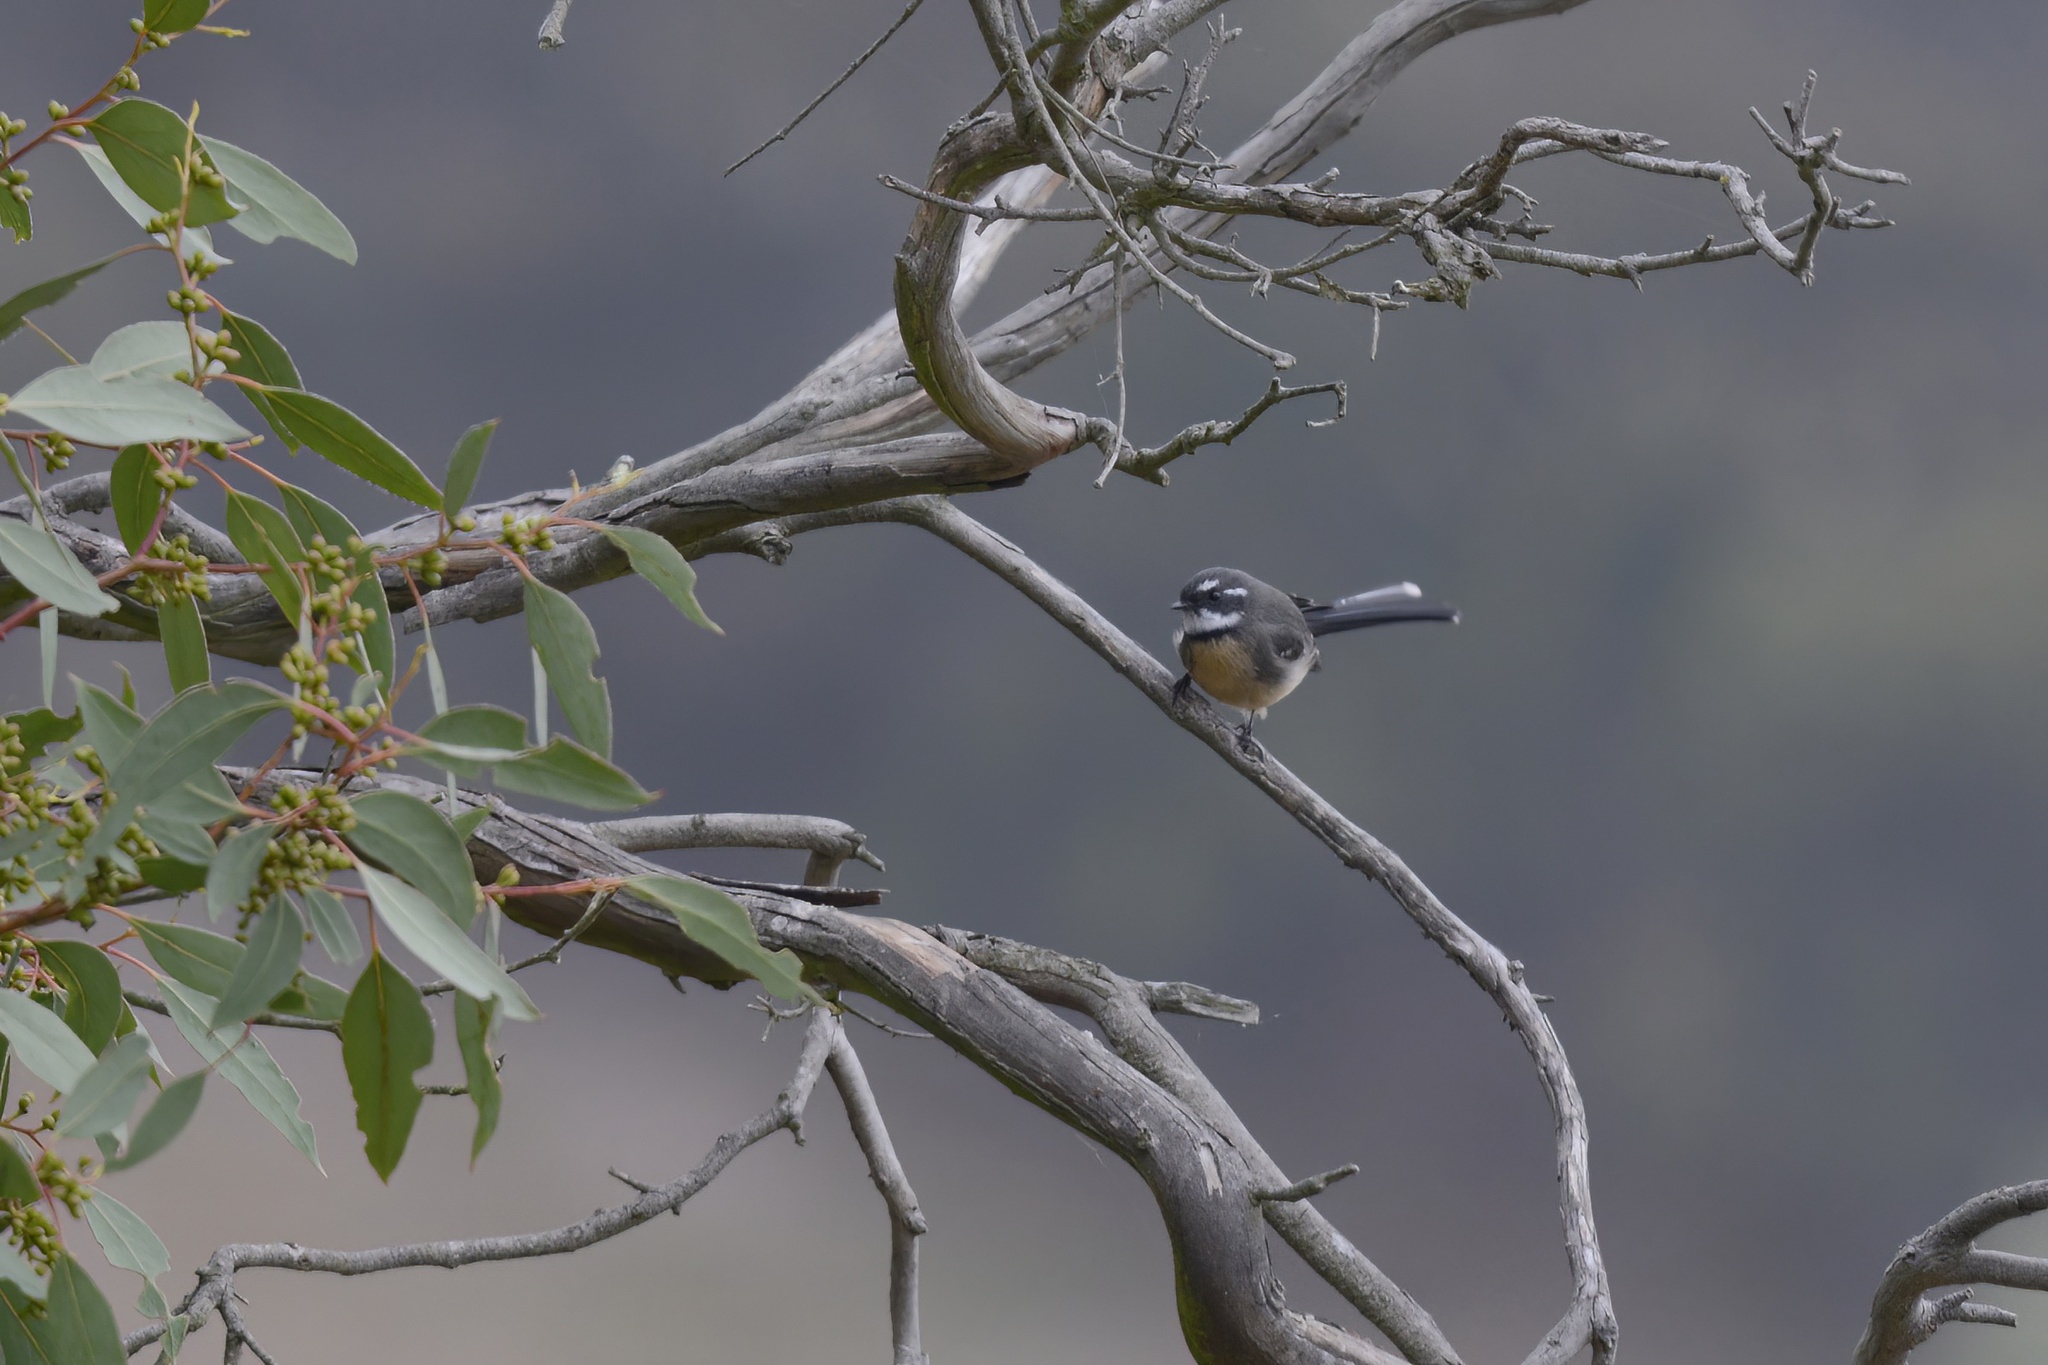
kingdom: Animalia
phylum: Chordata
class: Aves
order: Passeriformes
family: Rhipiduridae
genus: Rhipidura
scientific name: Rhipidura albiscapa
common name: Grey fantail
